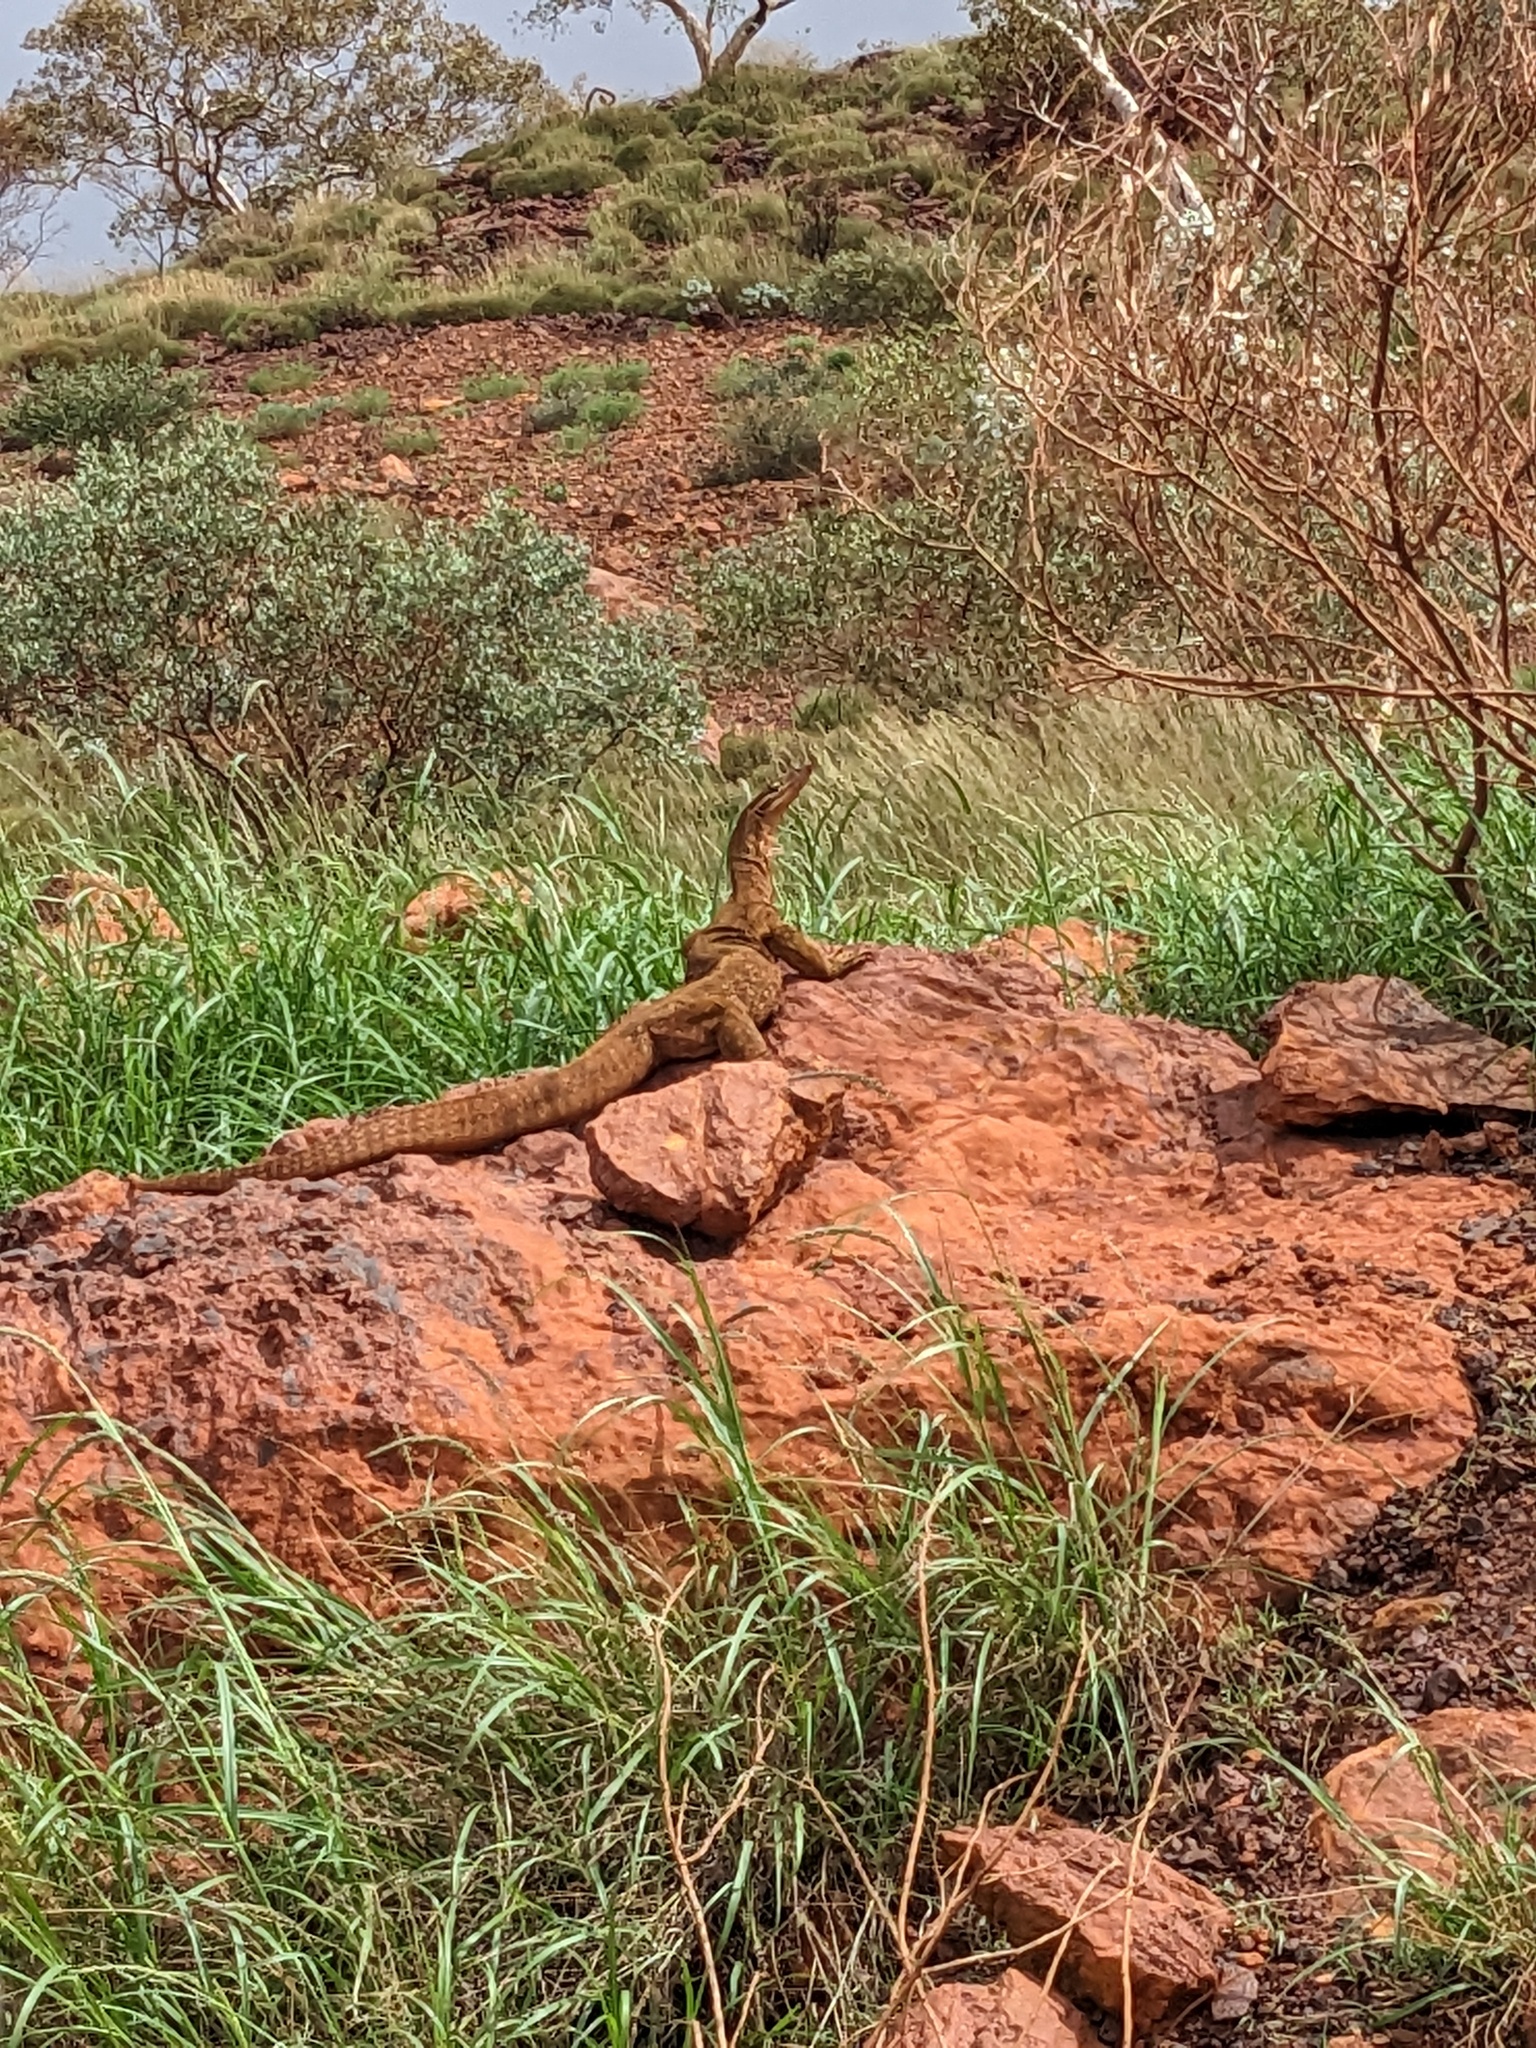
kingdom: Animalia
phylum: Chordata
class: Squamata
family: Varanidae
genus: Varanus
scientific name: Varanus panoptes
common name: Yellow-spotted monitor
